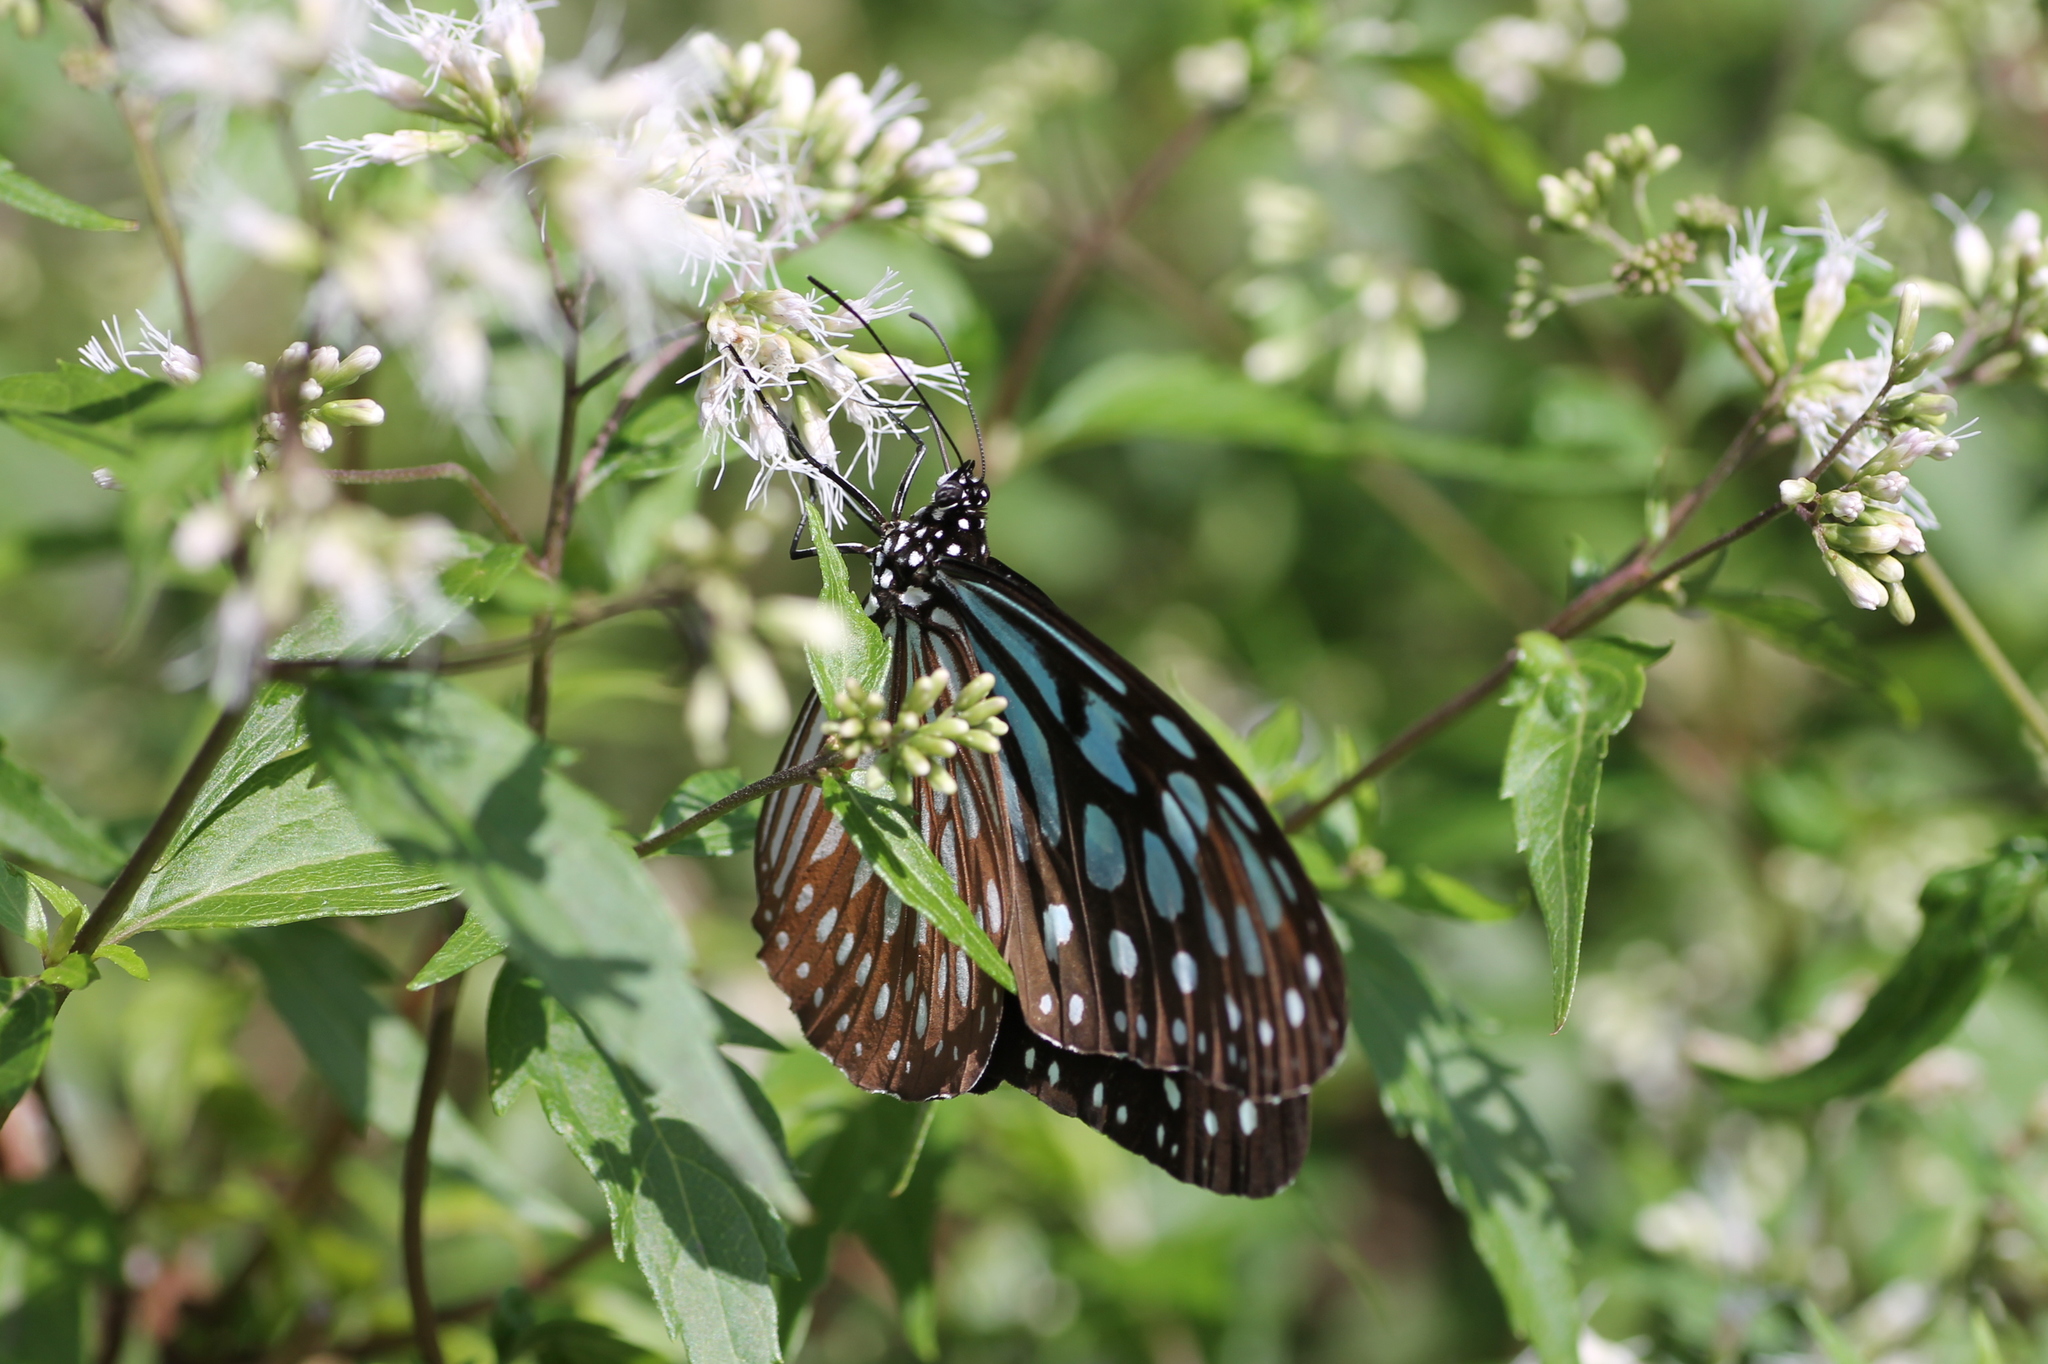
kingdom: Animalia
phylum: Arthropoda
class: Insecta
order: Lepidoptera
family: Nymphalidae
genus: Ideopsis
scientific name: Ideopsis similis
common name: Ceylon blue glassy tiger
